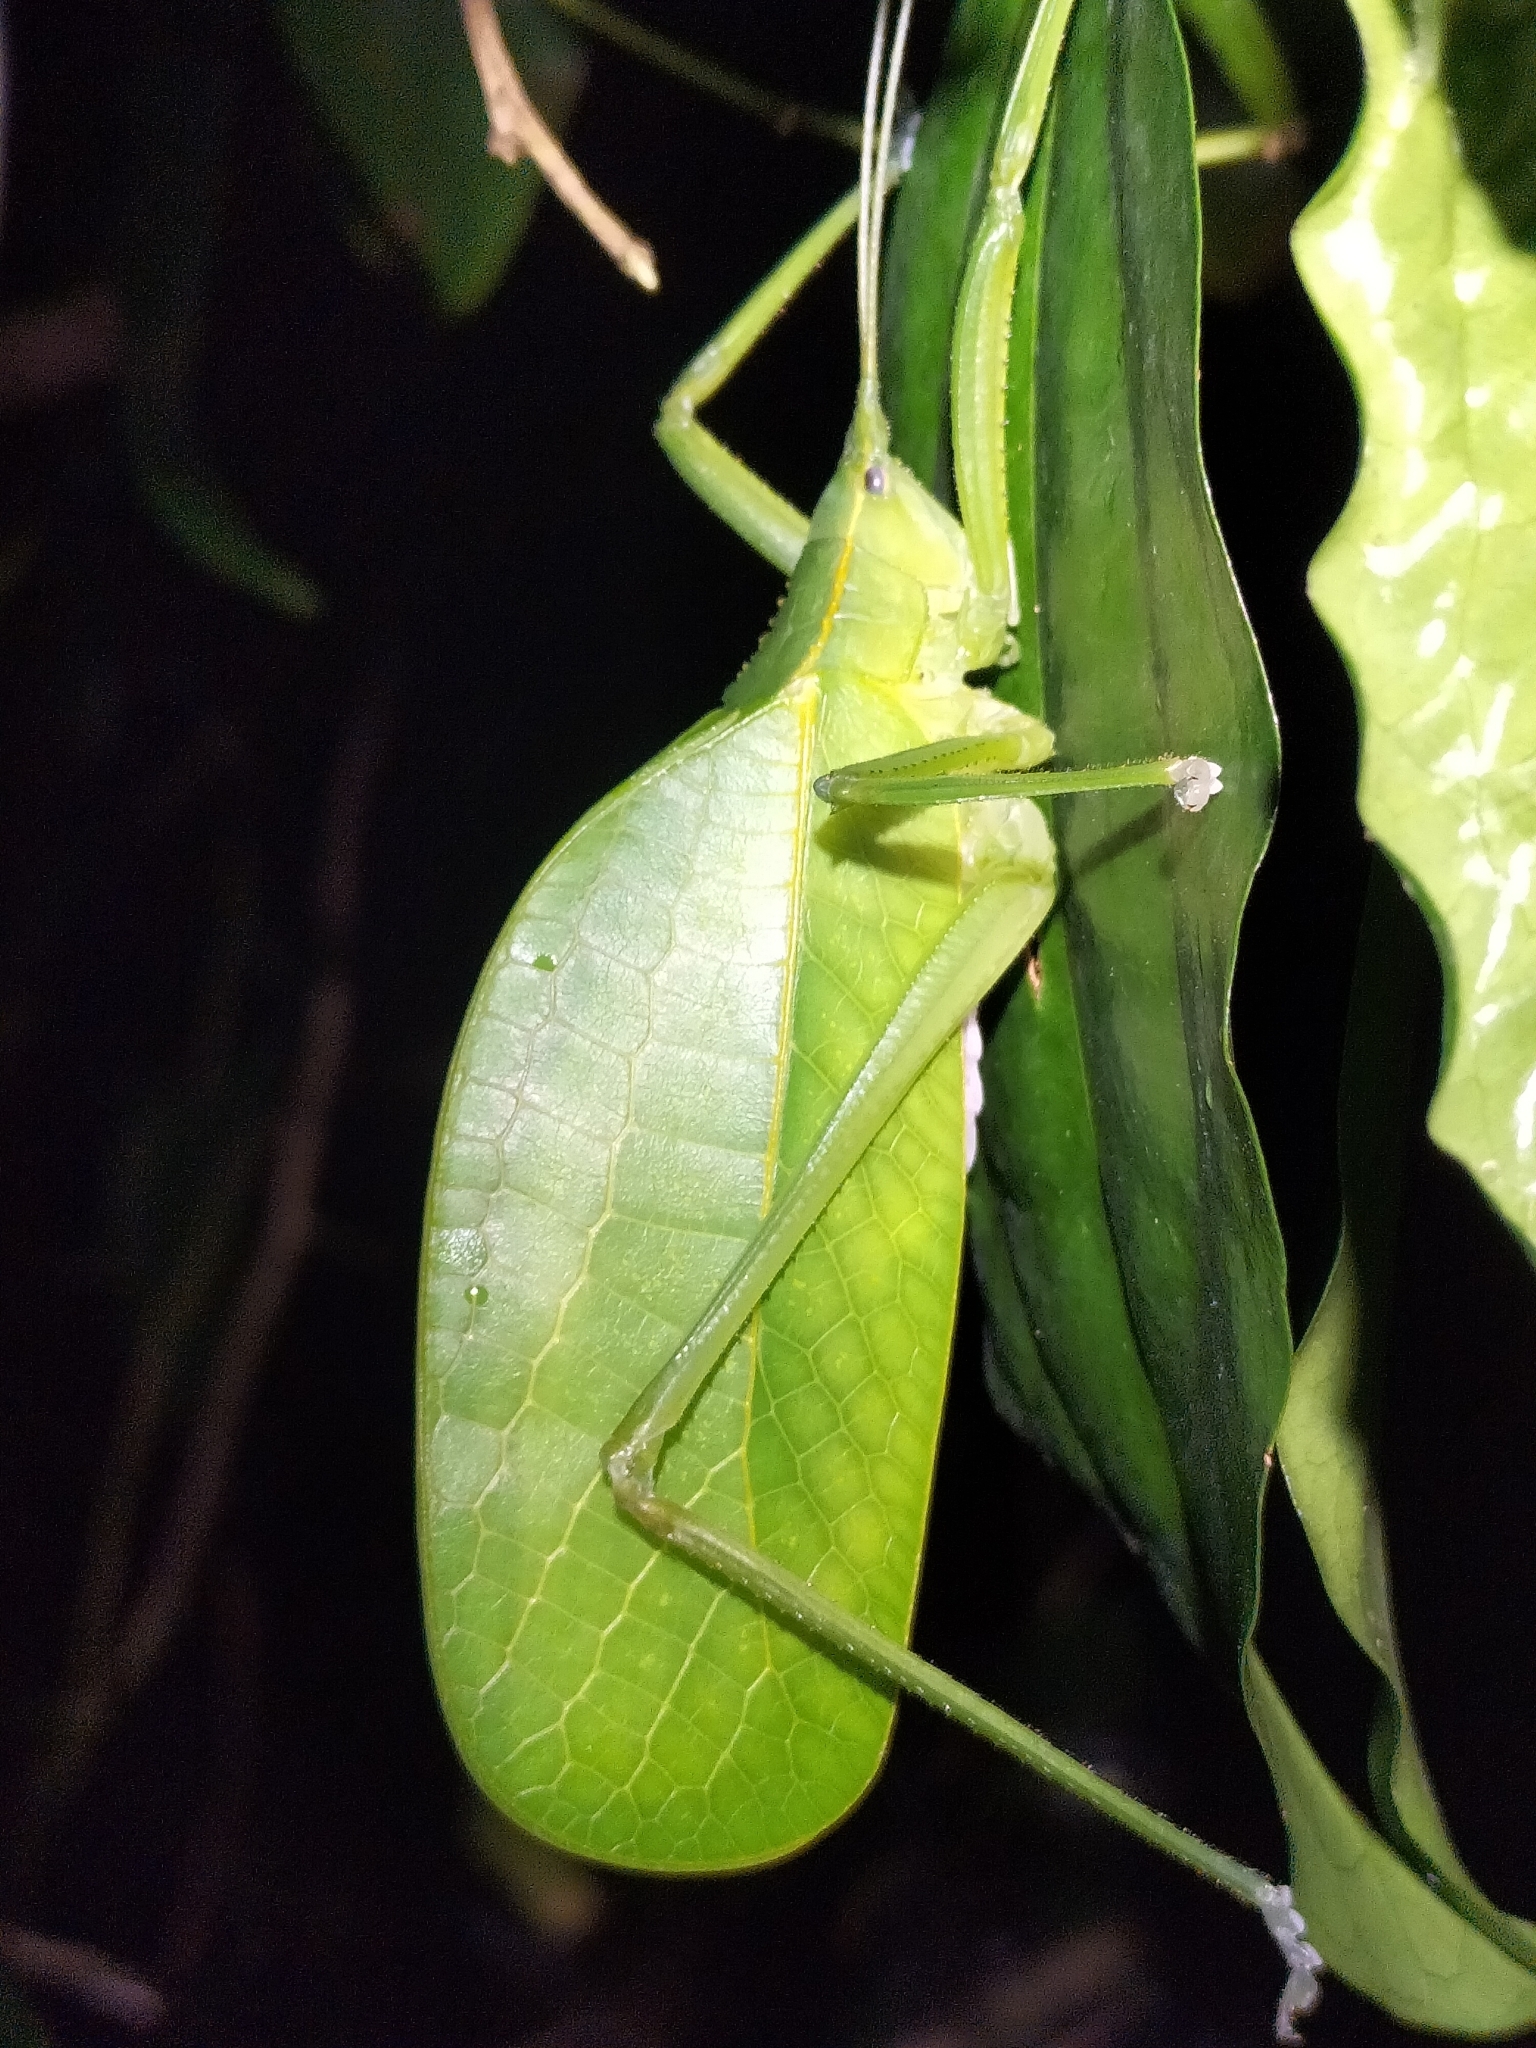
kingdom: Animalia
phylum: Arthropoda
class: Insecta
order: Orthoptera
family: Tettigoniidae
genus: Mastighaphoides
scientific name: Mastighaphoides tuberculatus
